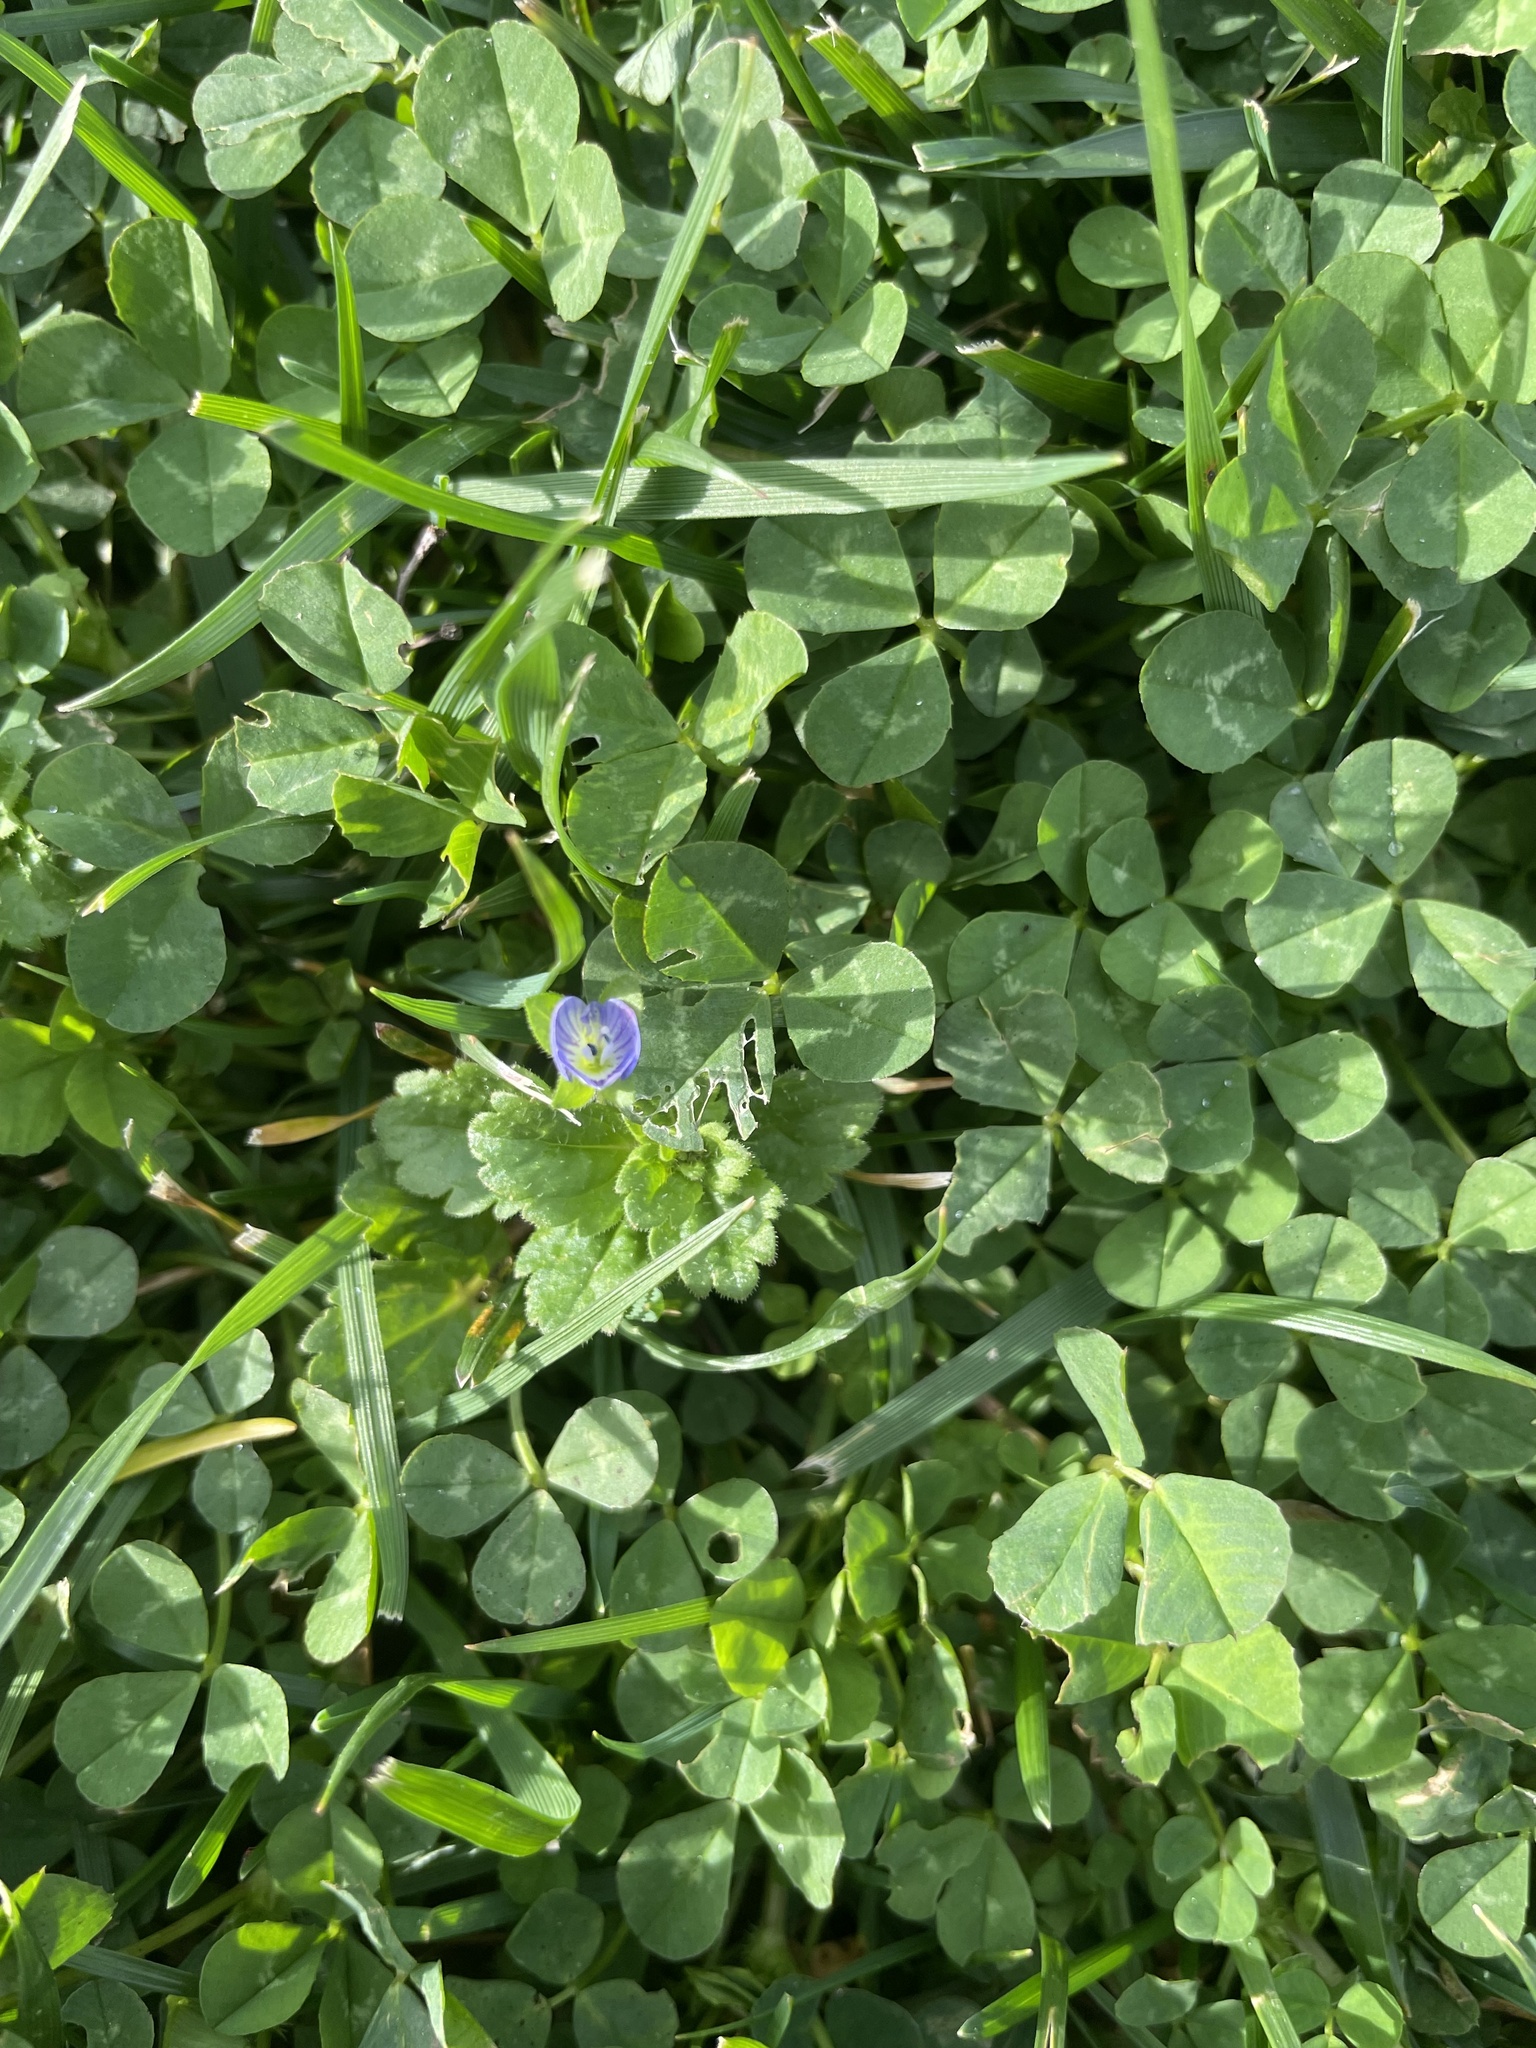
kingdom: Plantae
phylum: Tracheophyta
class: Magnoliopsida
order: Lamiales
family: Plantaginaceae
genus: Veronica
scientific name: Veronica persica
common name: Common field-speedwell
